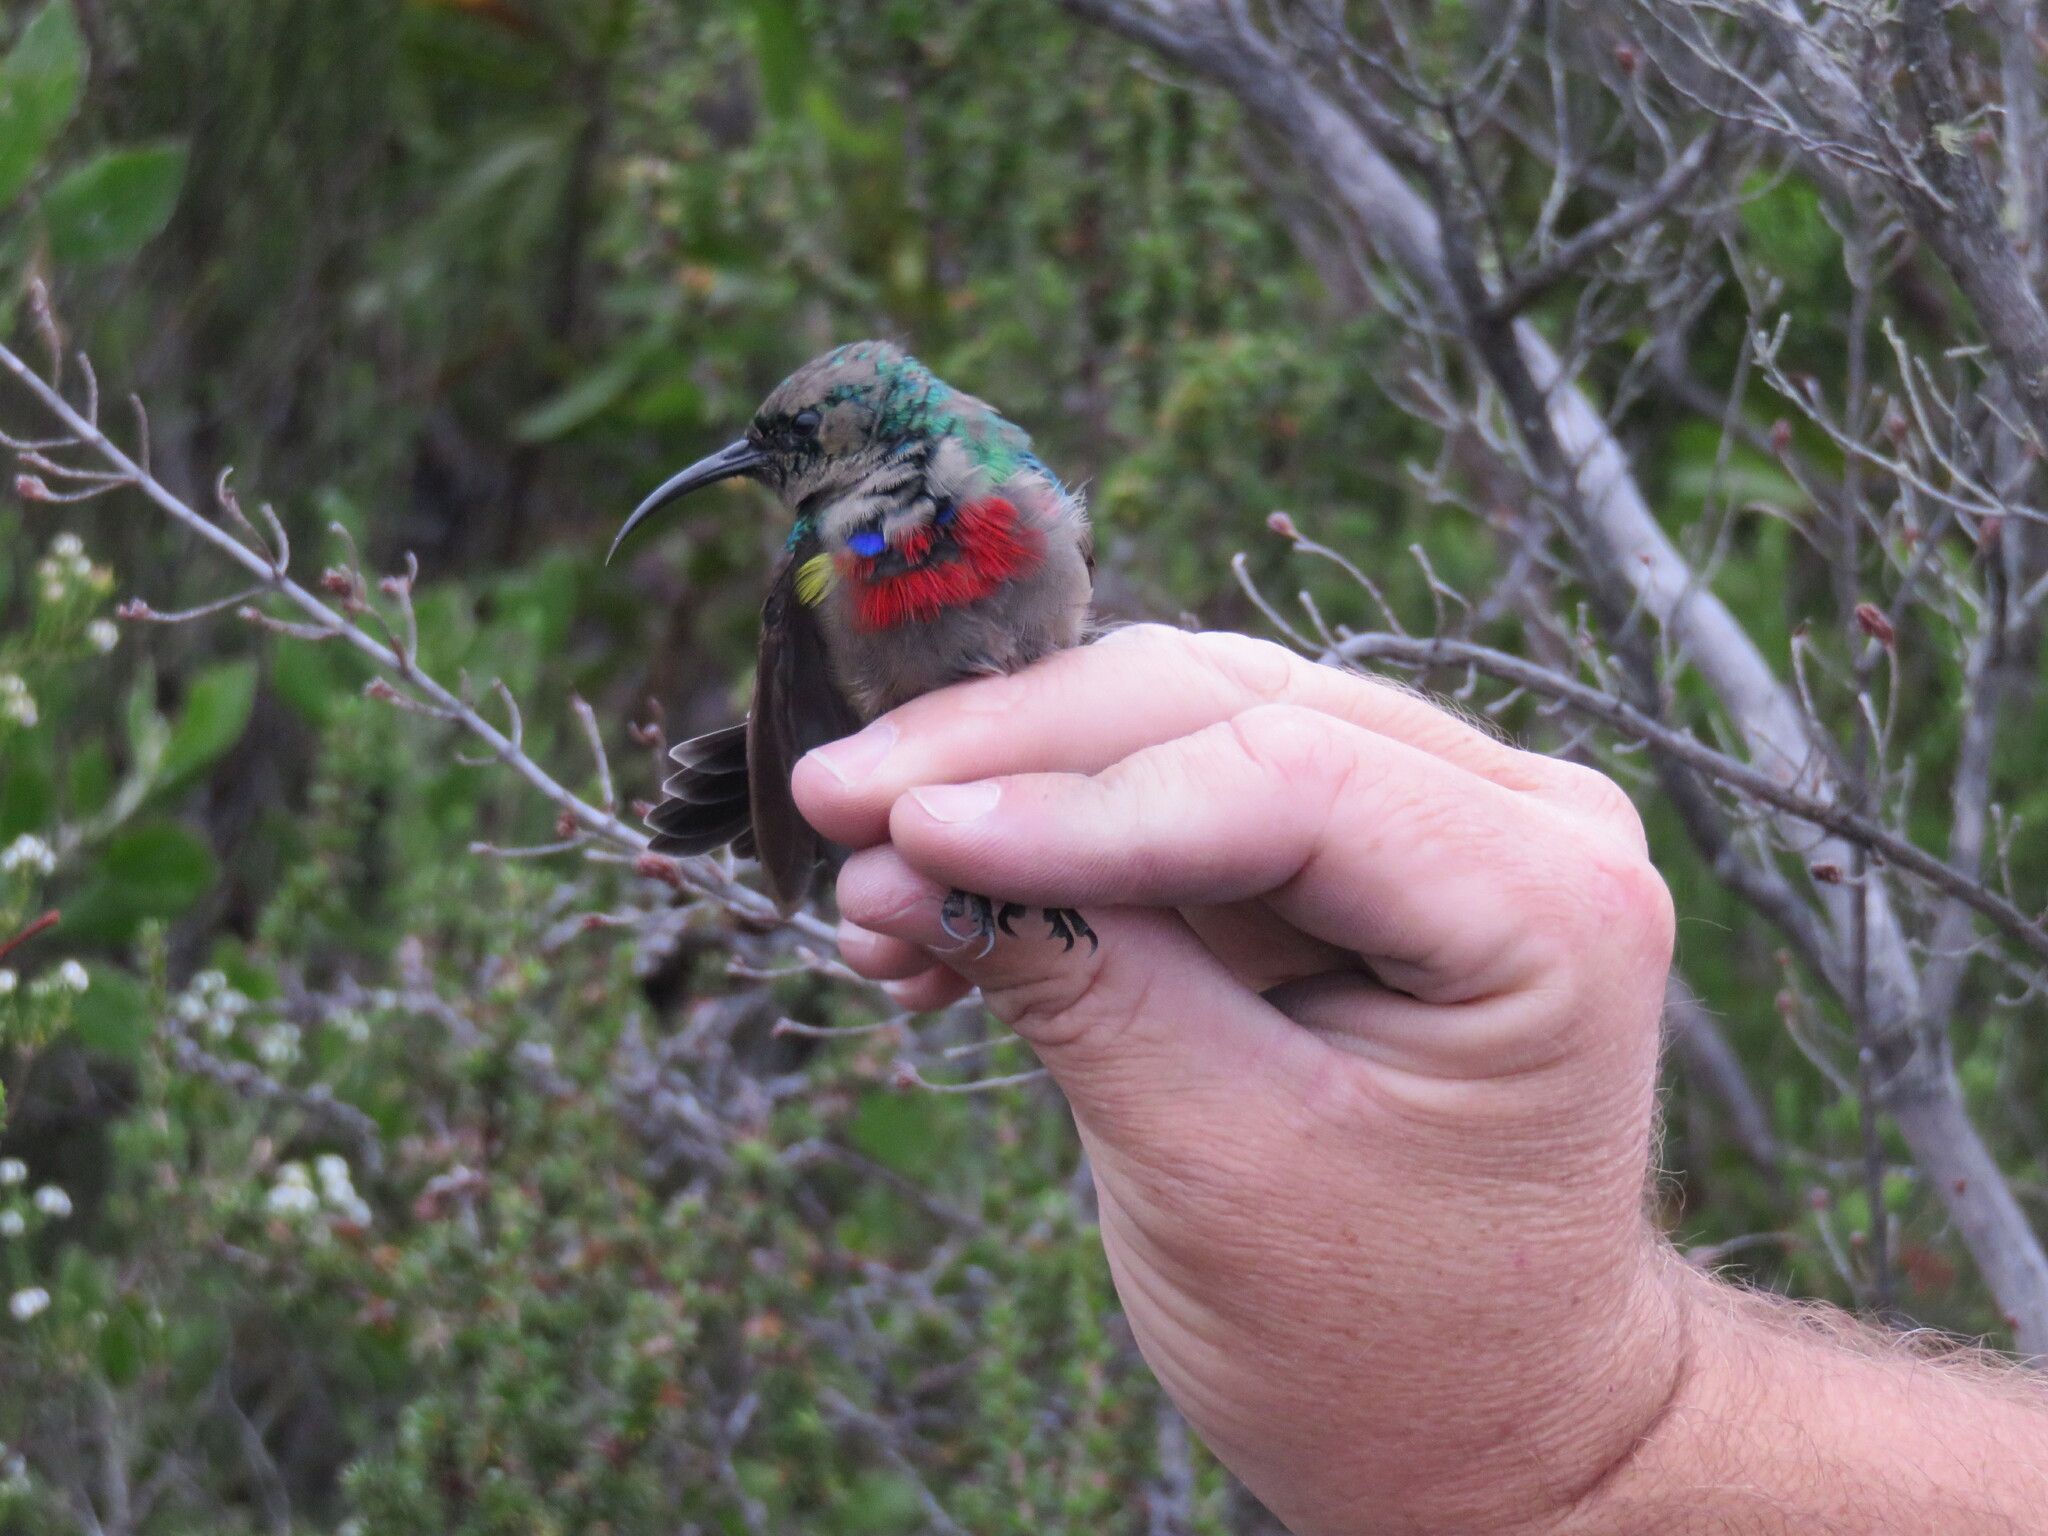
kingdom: Animalia
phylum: Chordata
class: Aves
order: Passeriformes
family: Nectariniidae
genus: Cinnyris
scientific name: Cinnyris chalybeus
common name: Southern double-collared sunbird
